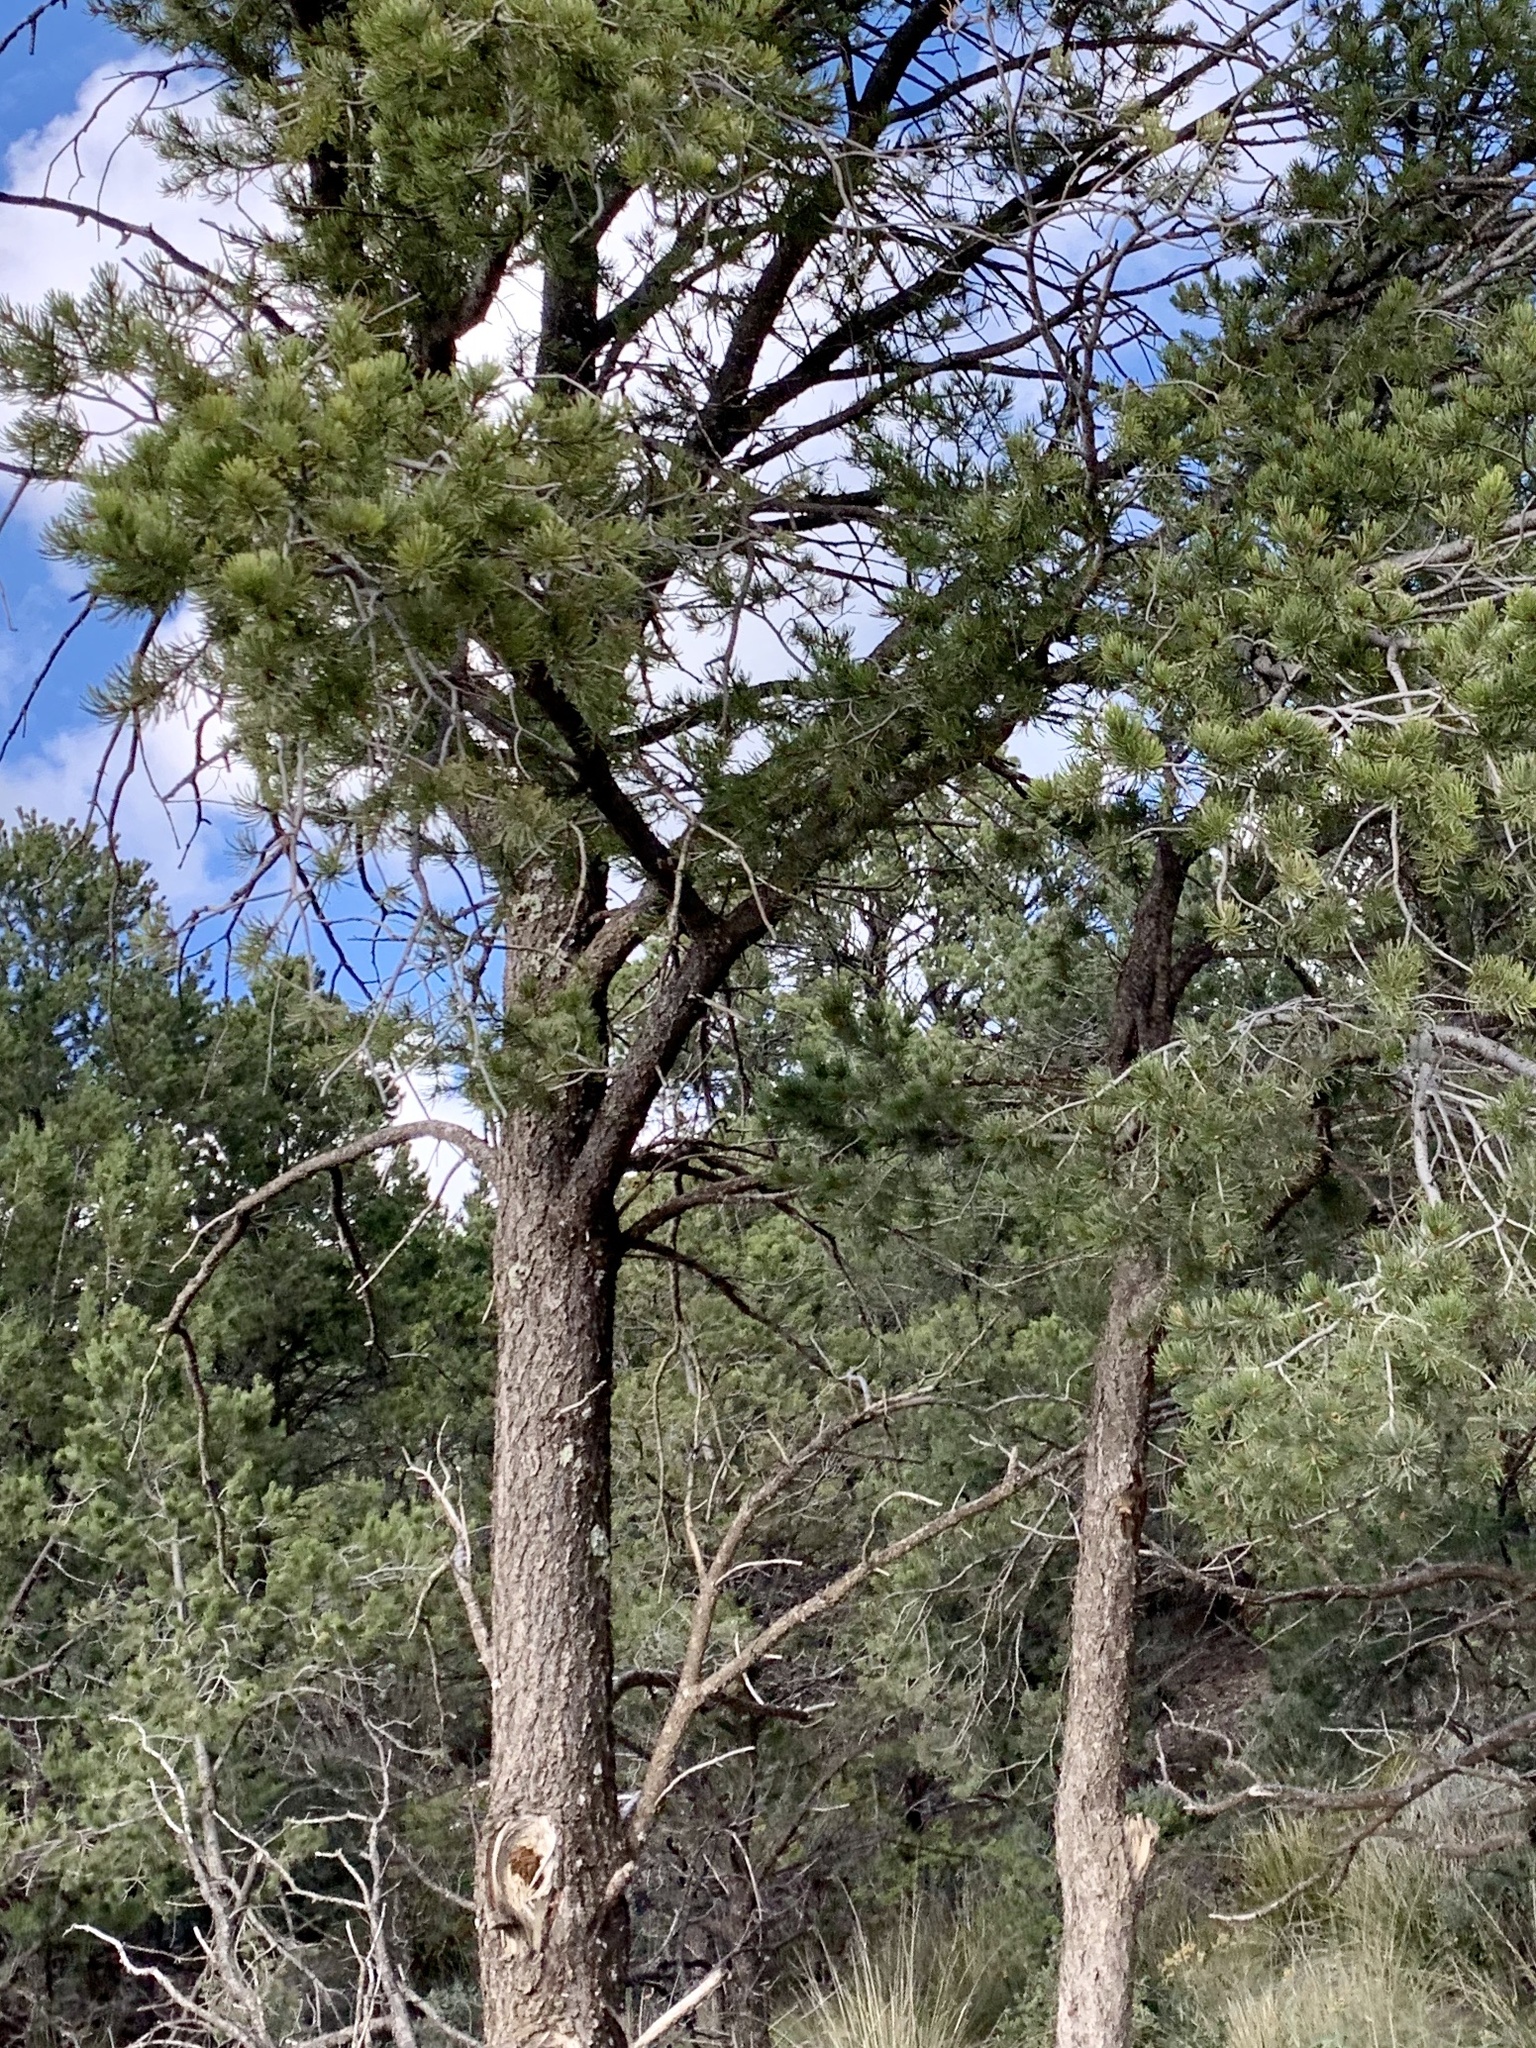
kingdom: Plantae
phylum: Tracheophyta
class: Pinopsida
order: Pinales
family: Pinaceae
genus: Pinus
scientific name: Pinus edulis
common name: Colorado pinyon
